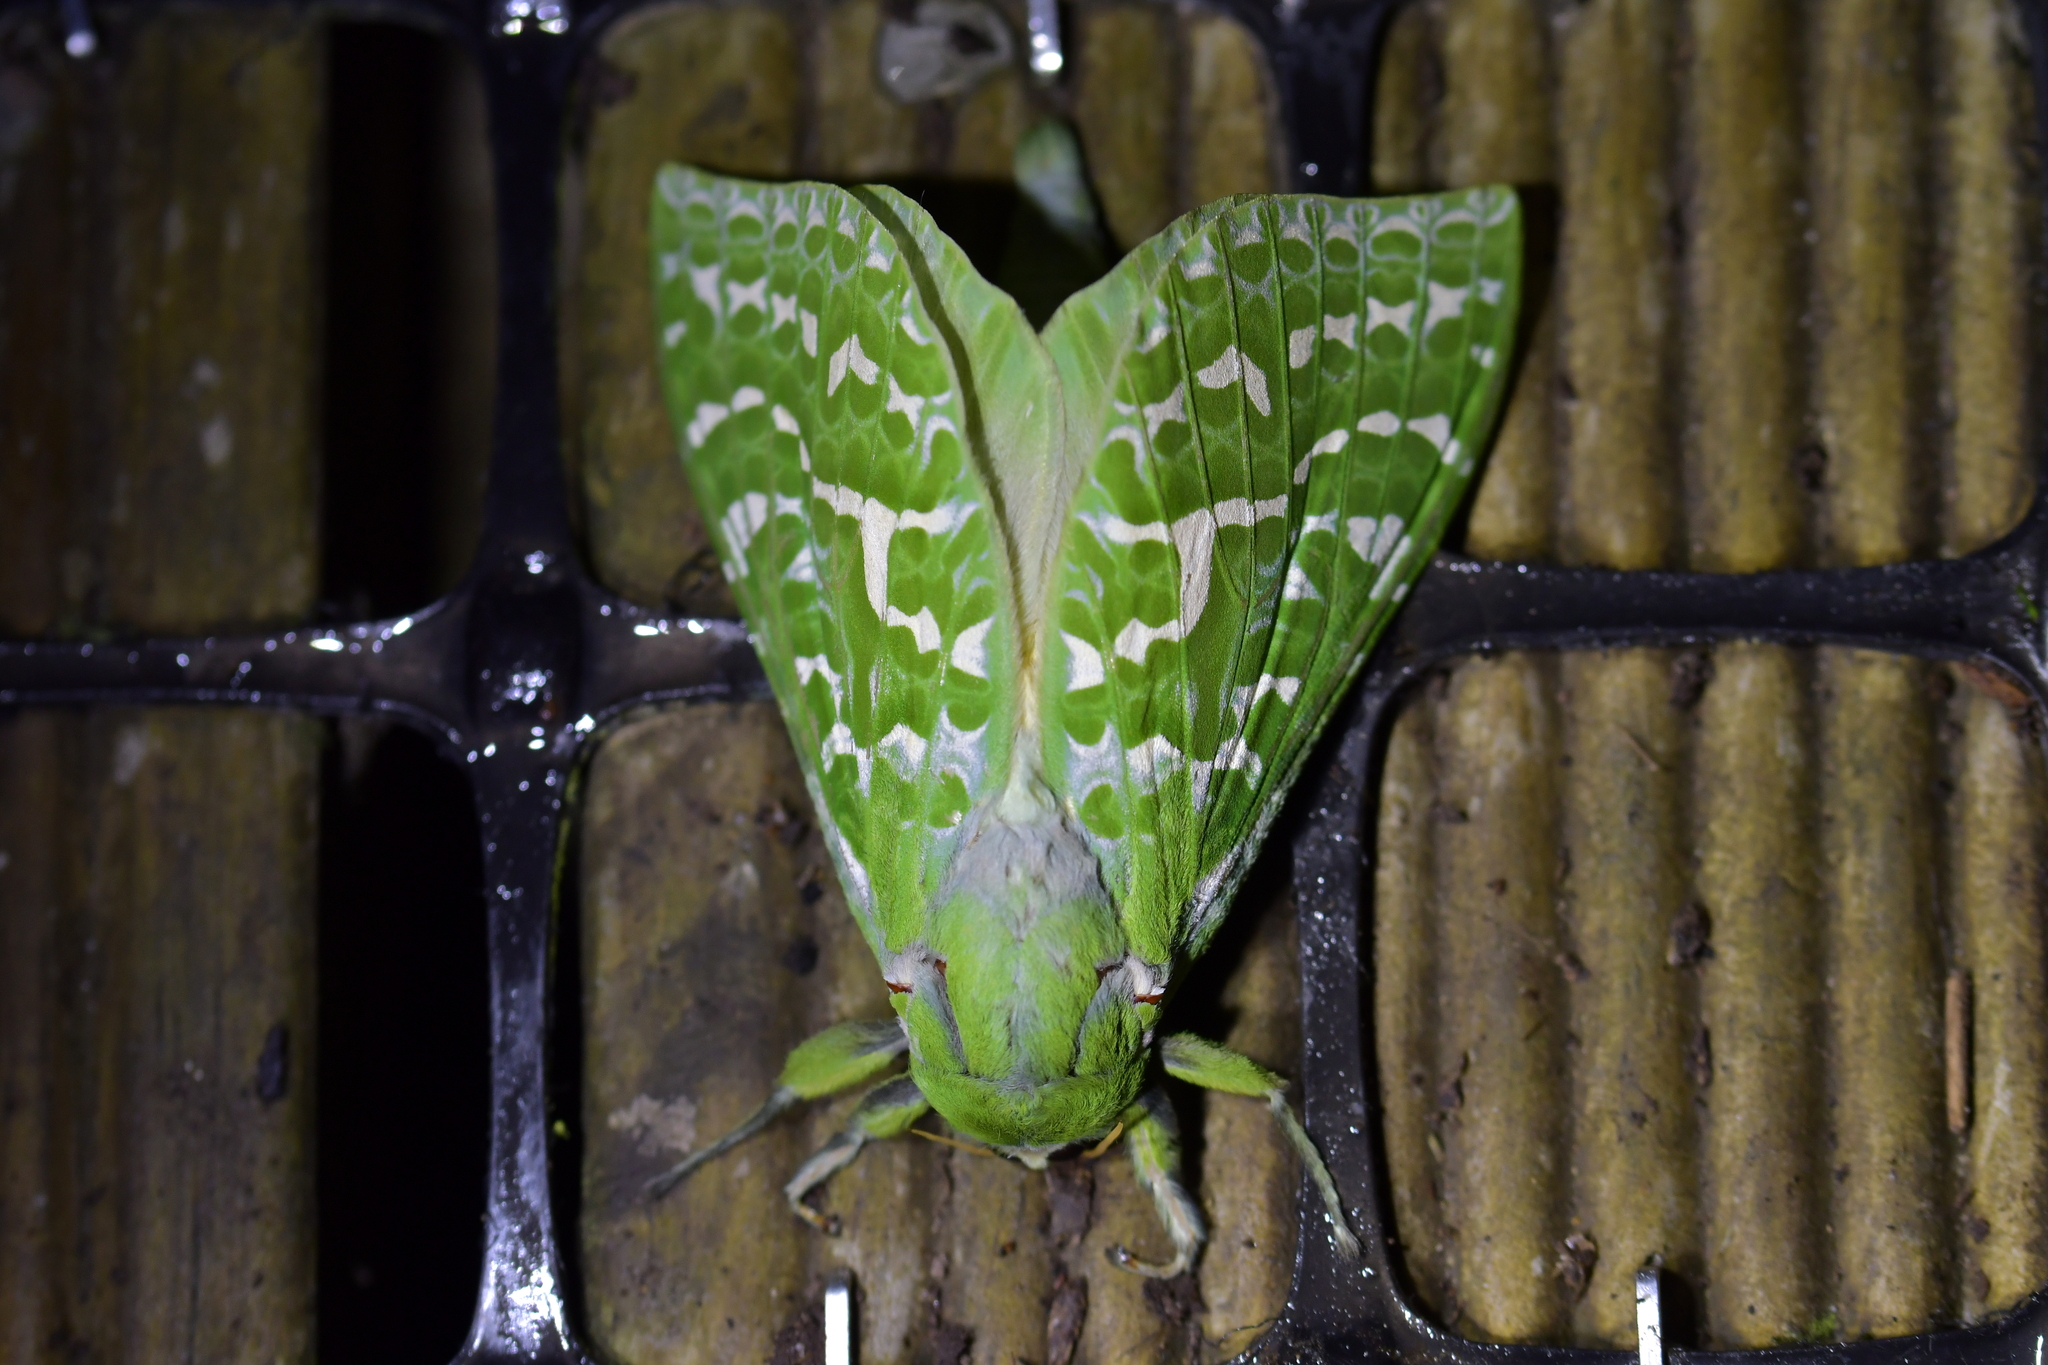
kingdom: Animalia
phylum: Arthropoda
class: Insecta
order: Lepidoptera
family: Hepialidae
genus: Aenetus
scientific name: Aenetus virescens
